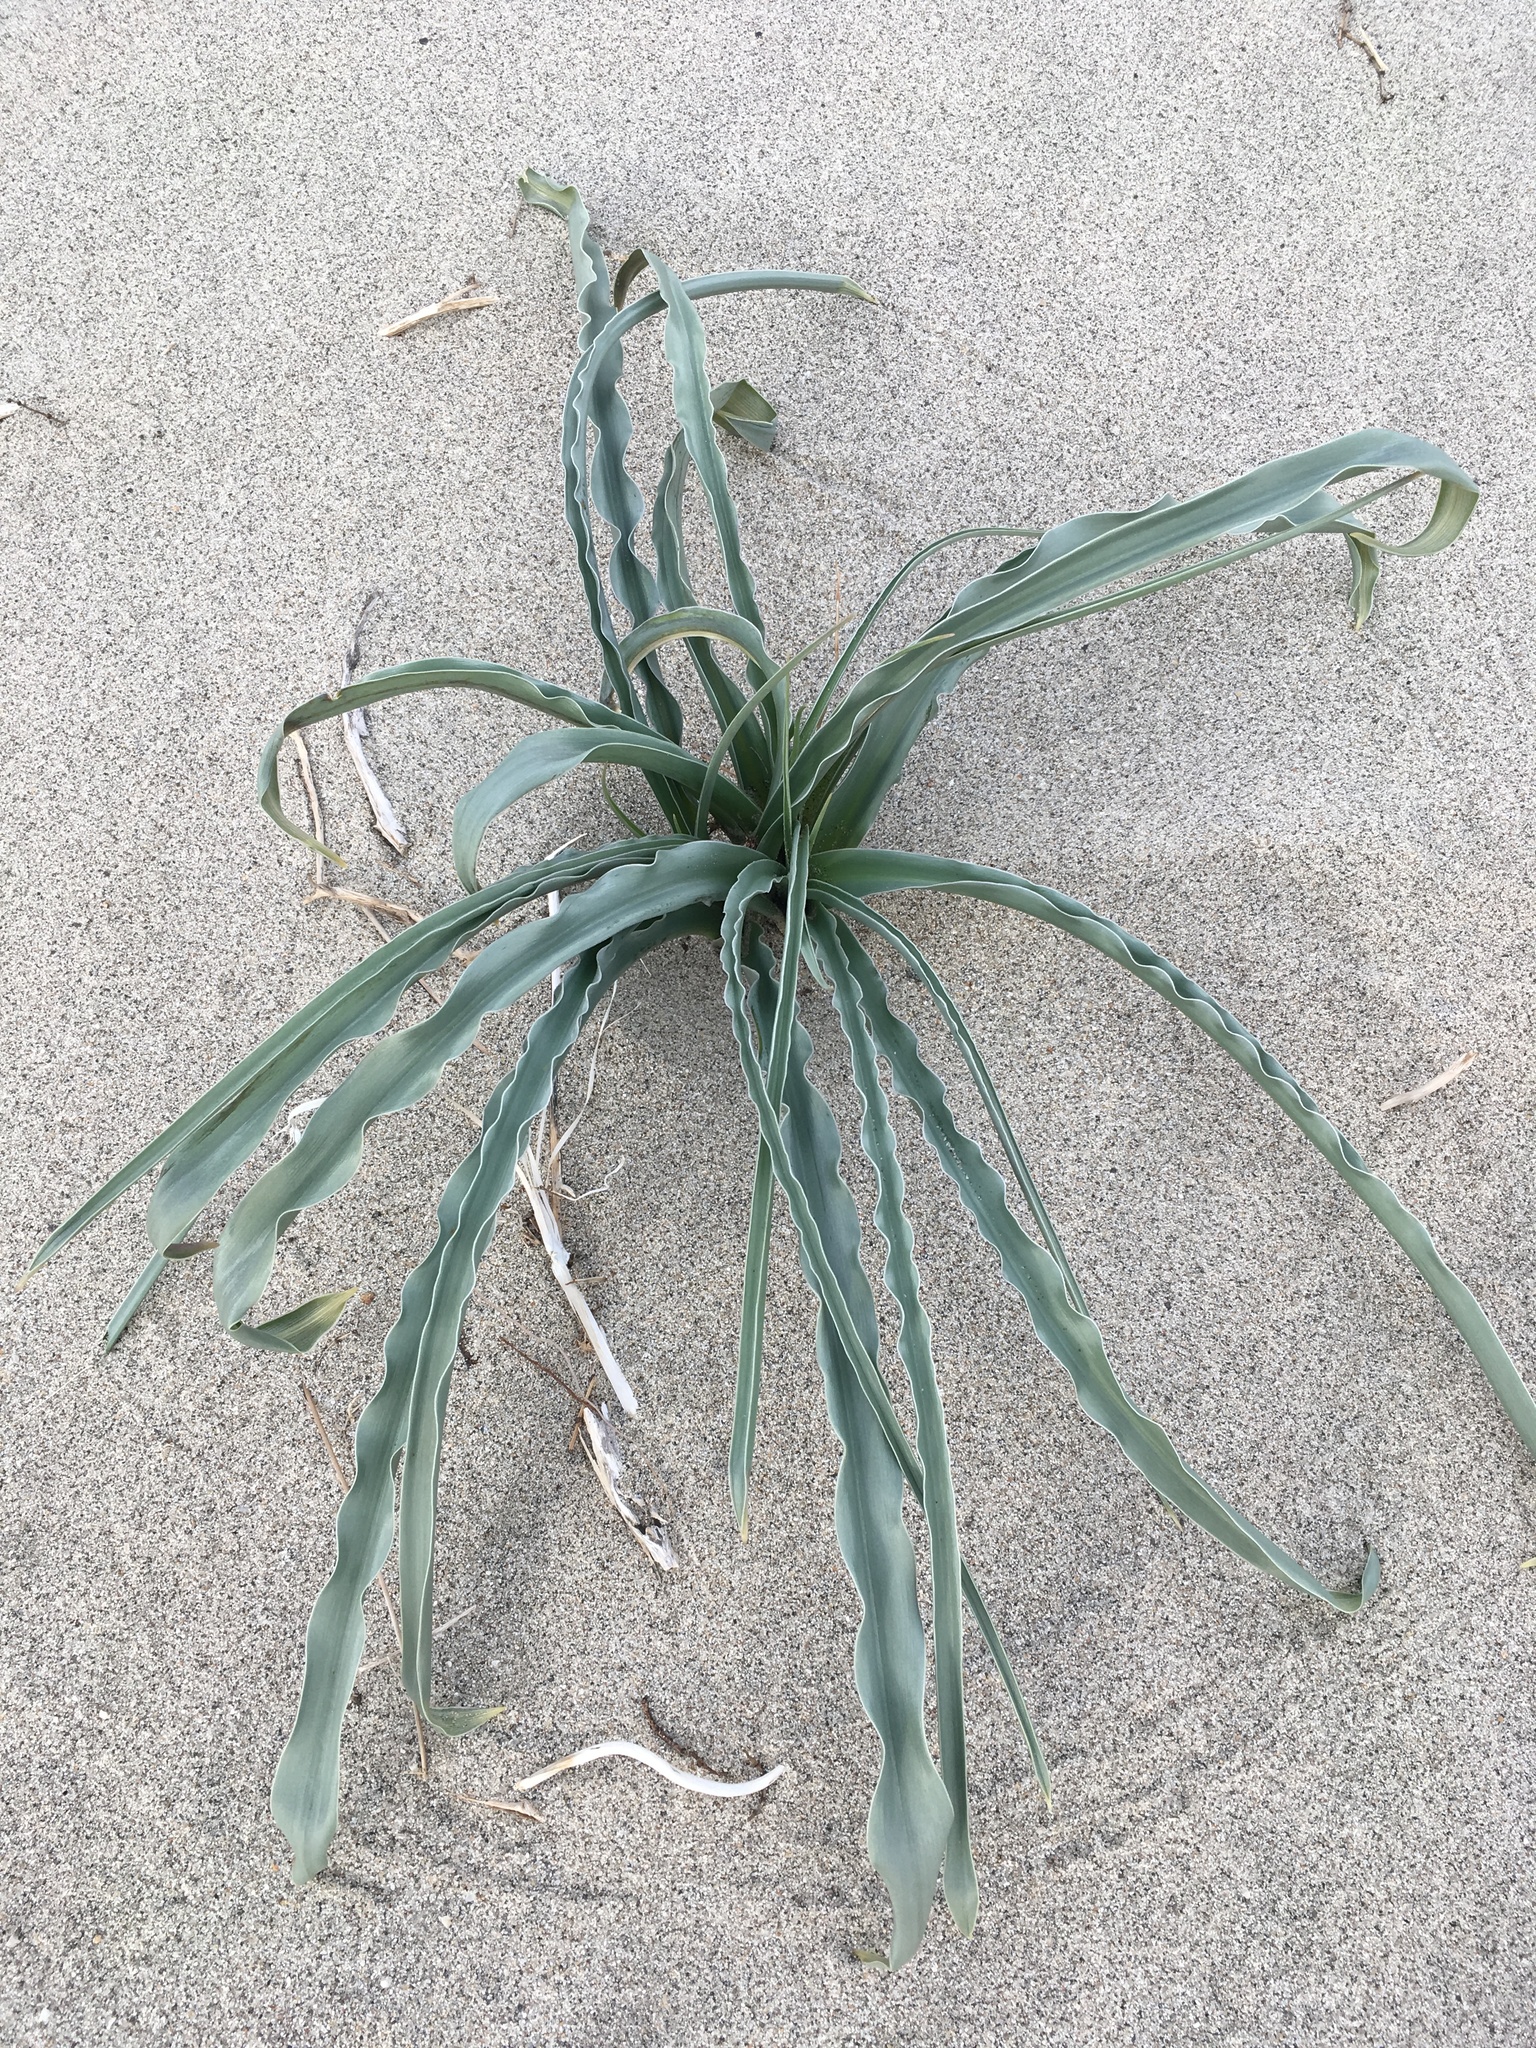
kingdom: Plantae
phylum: Tracheophyta
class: Liliopsida
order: Asparagales
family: Asparagaceae
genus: Hesperocallis
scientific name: Hesperocallis undulata
